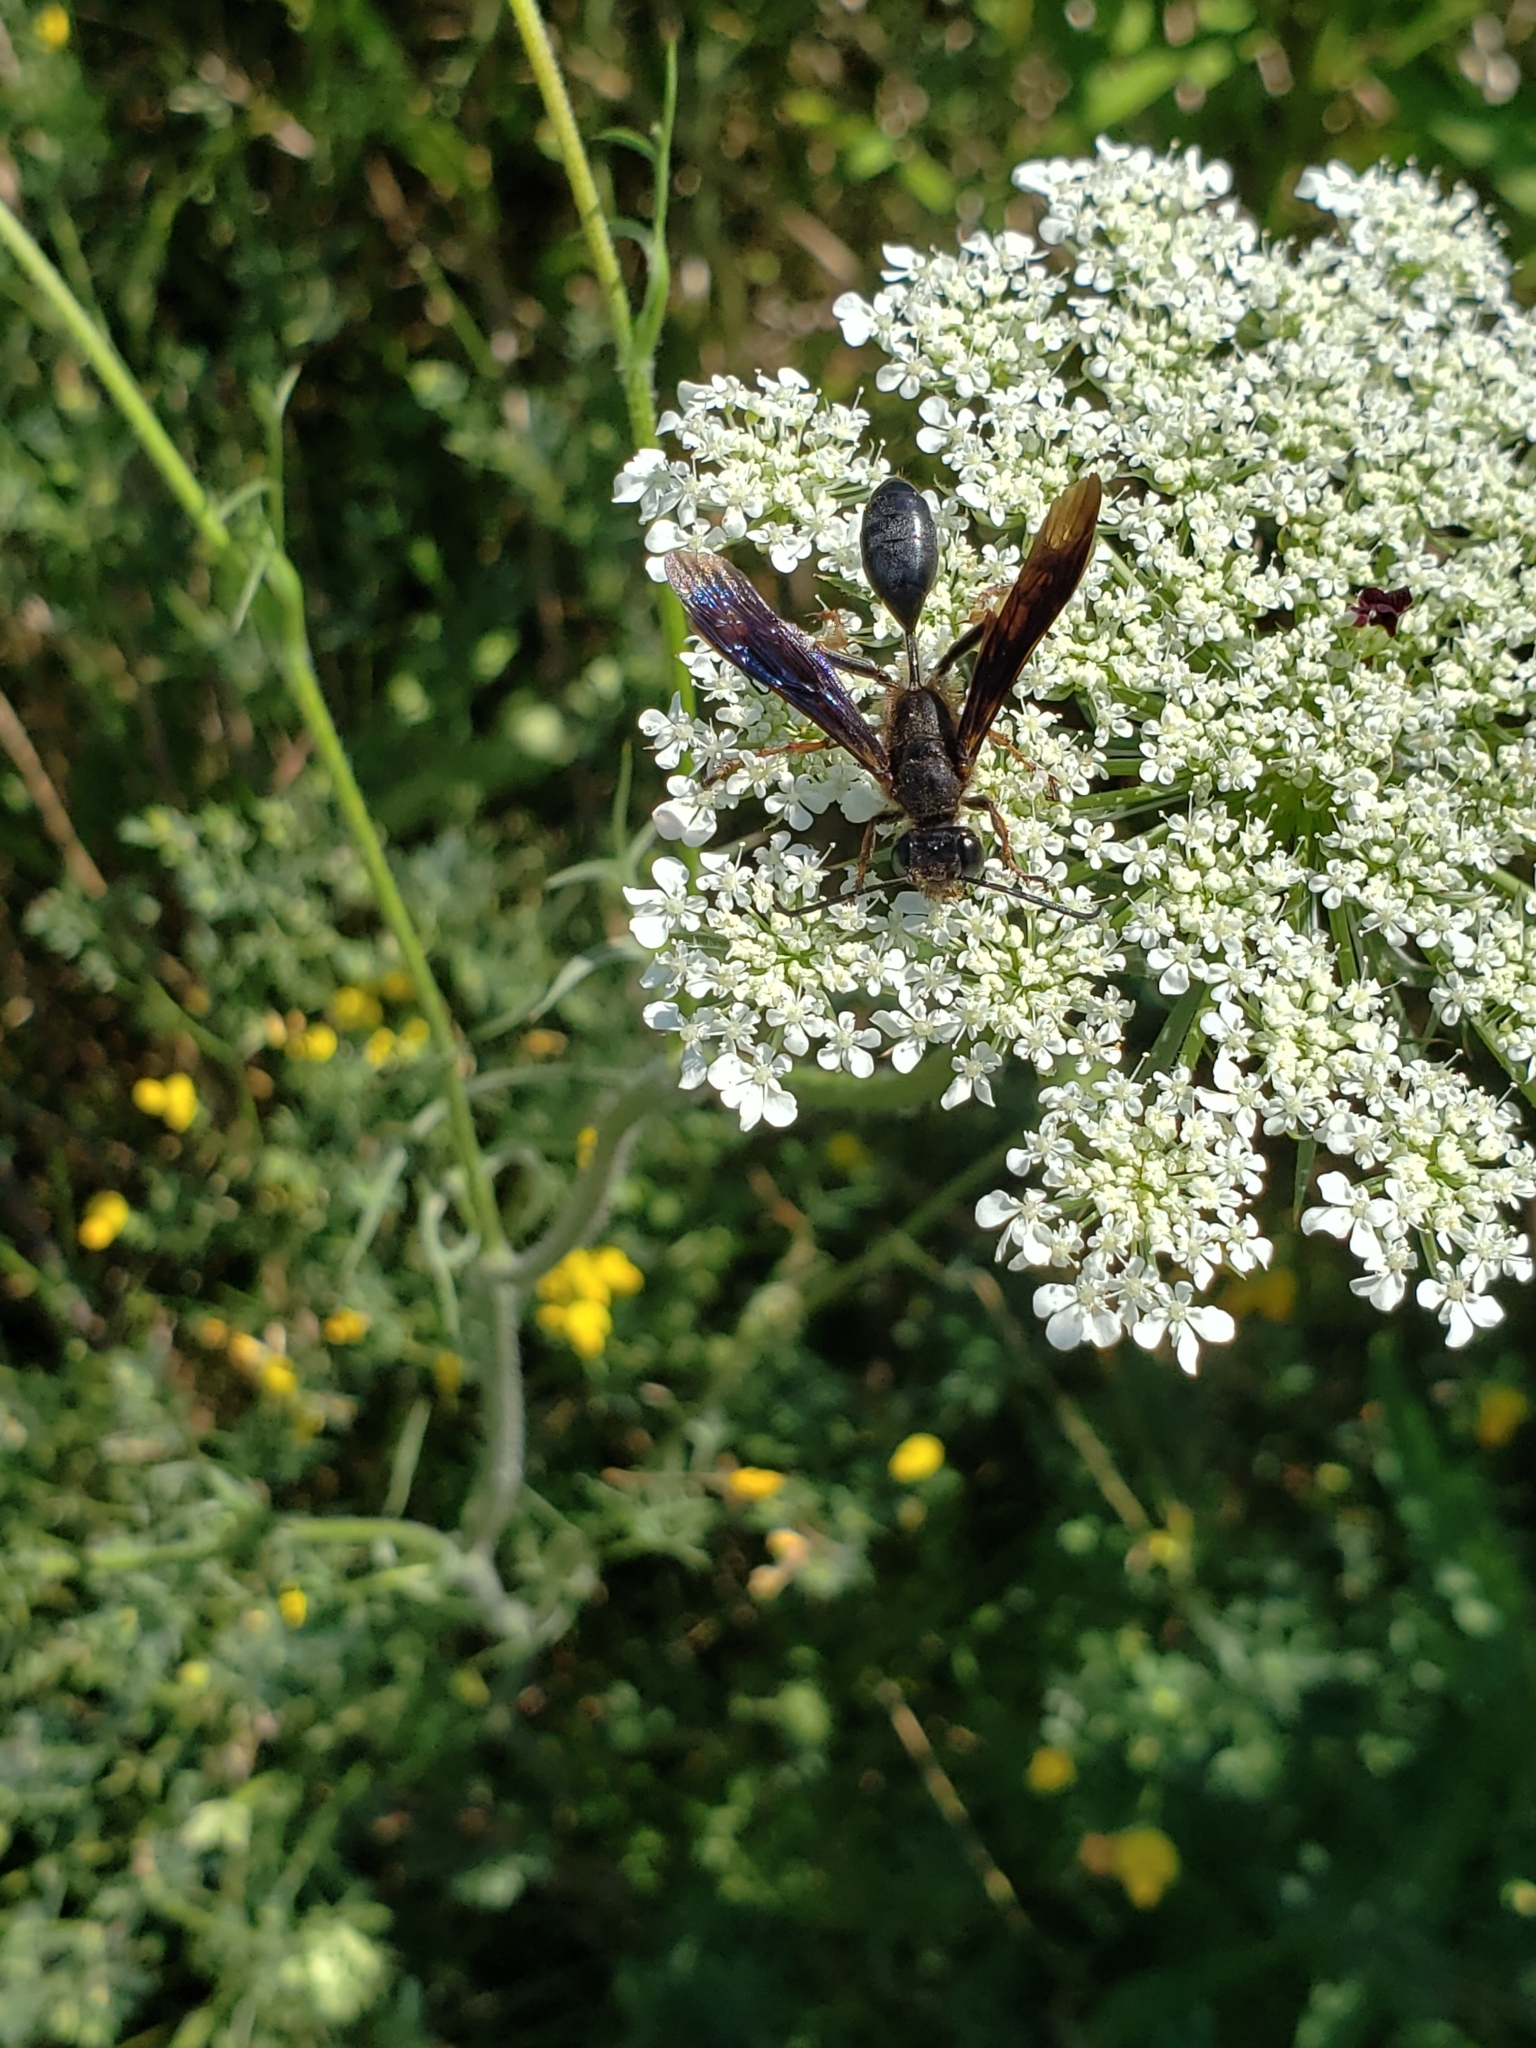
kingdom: Animalia
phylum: Arthropoda
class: Insecta
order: Hymenoptera
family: Sphecidae
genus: Isodontia
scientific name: Isodontia auripes
